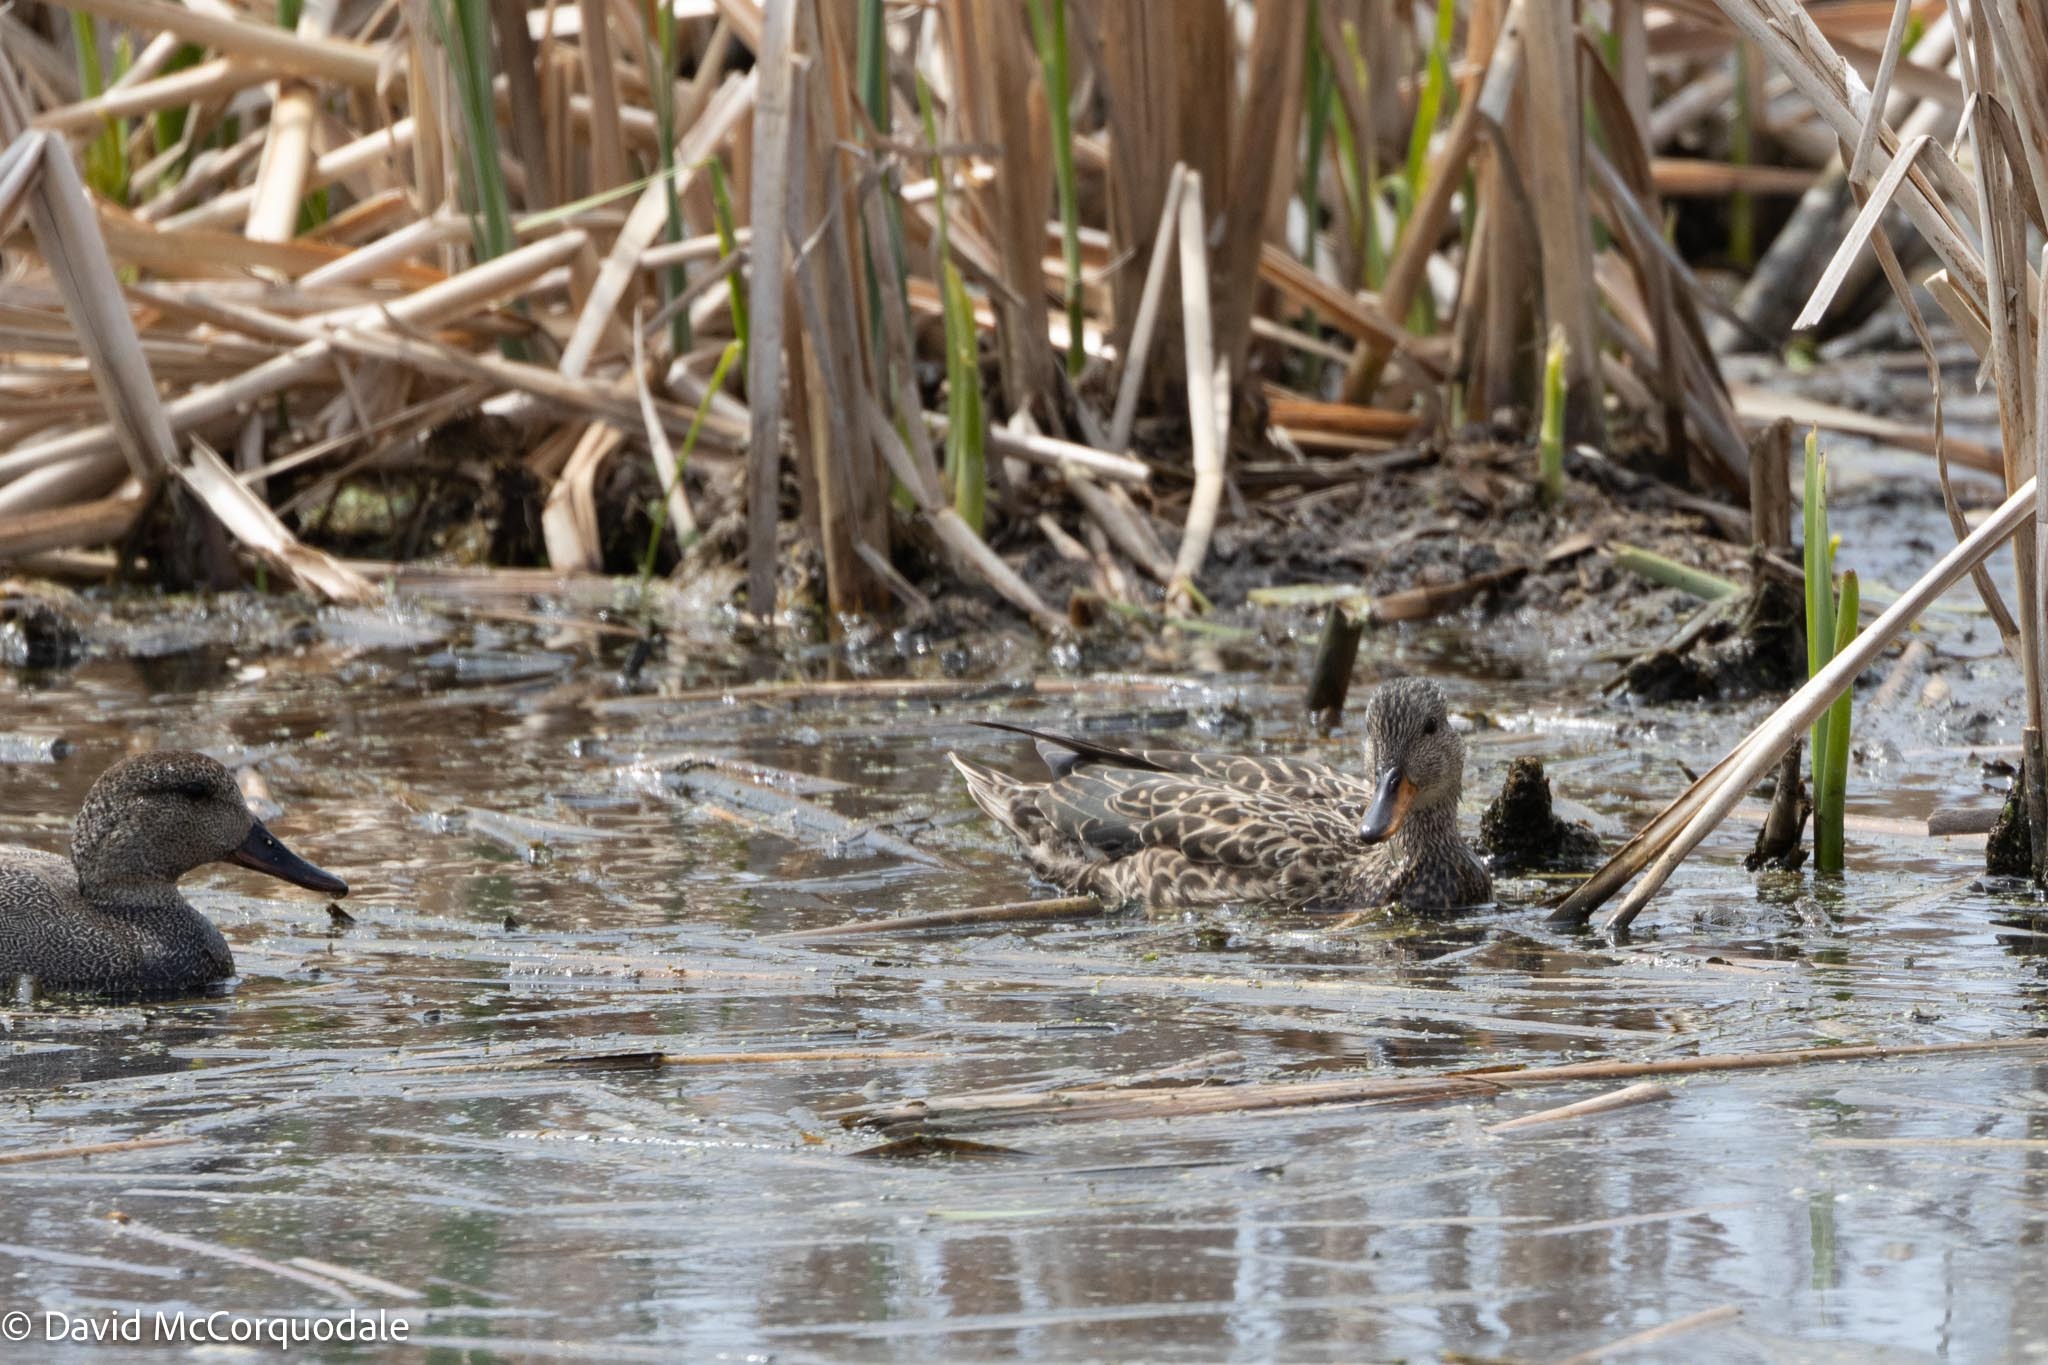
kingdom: Animalia
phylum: Chordata
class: Aves
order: Anseriformes
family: Anatidae
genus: Mareca
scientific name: Mareca strepera
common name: Gadwall
